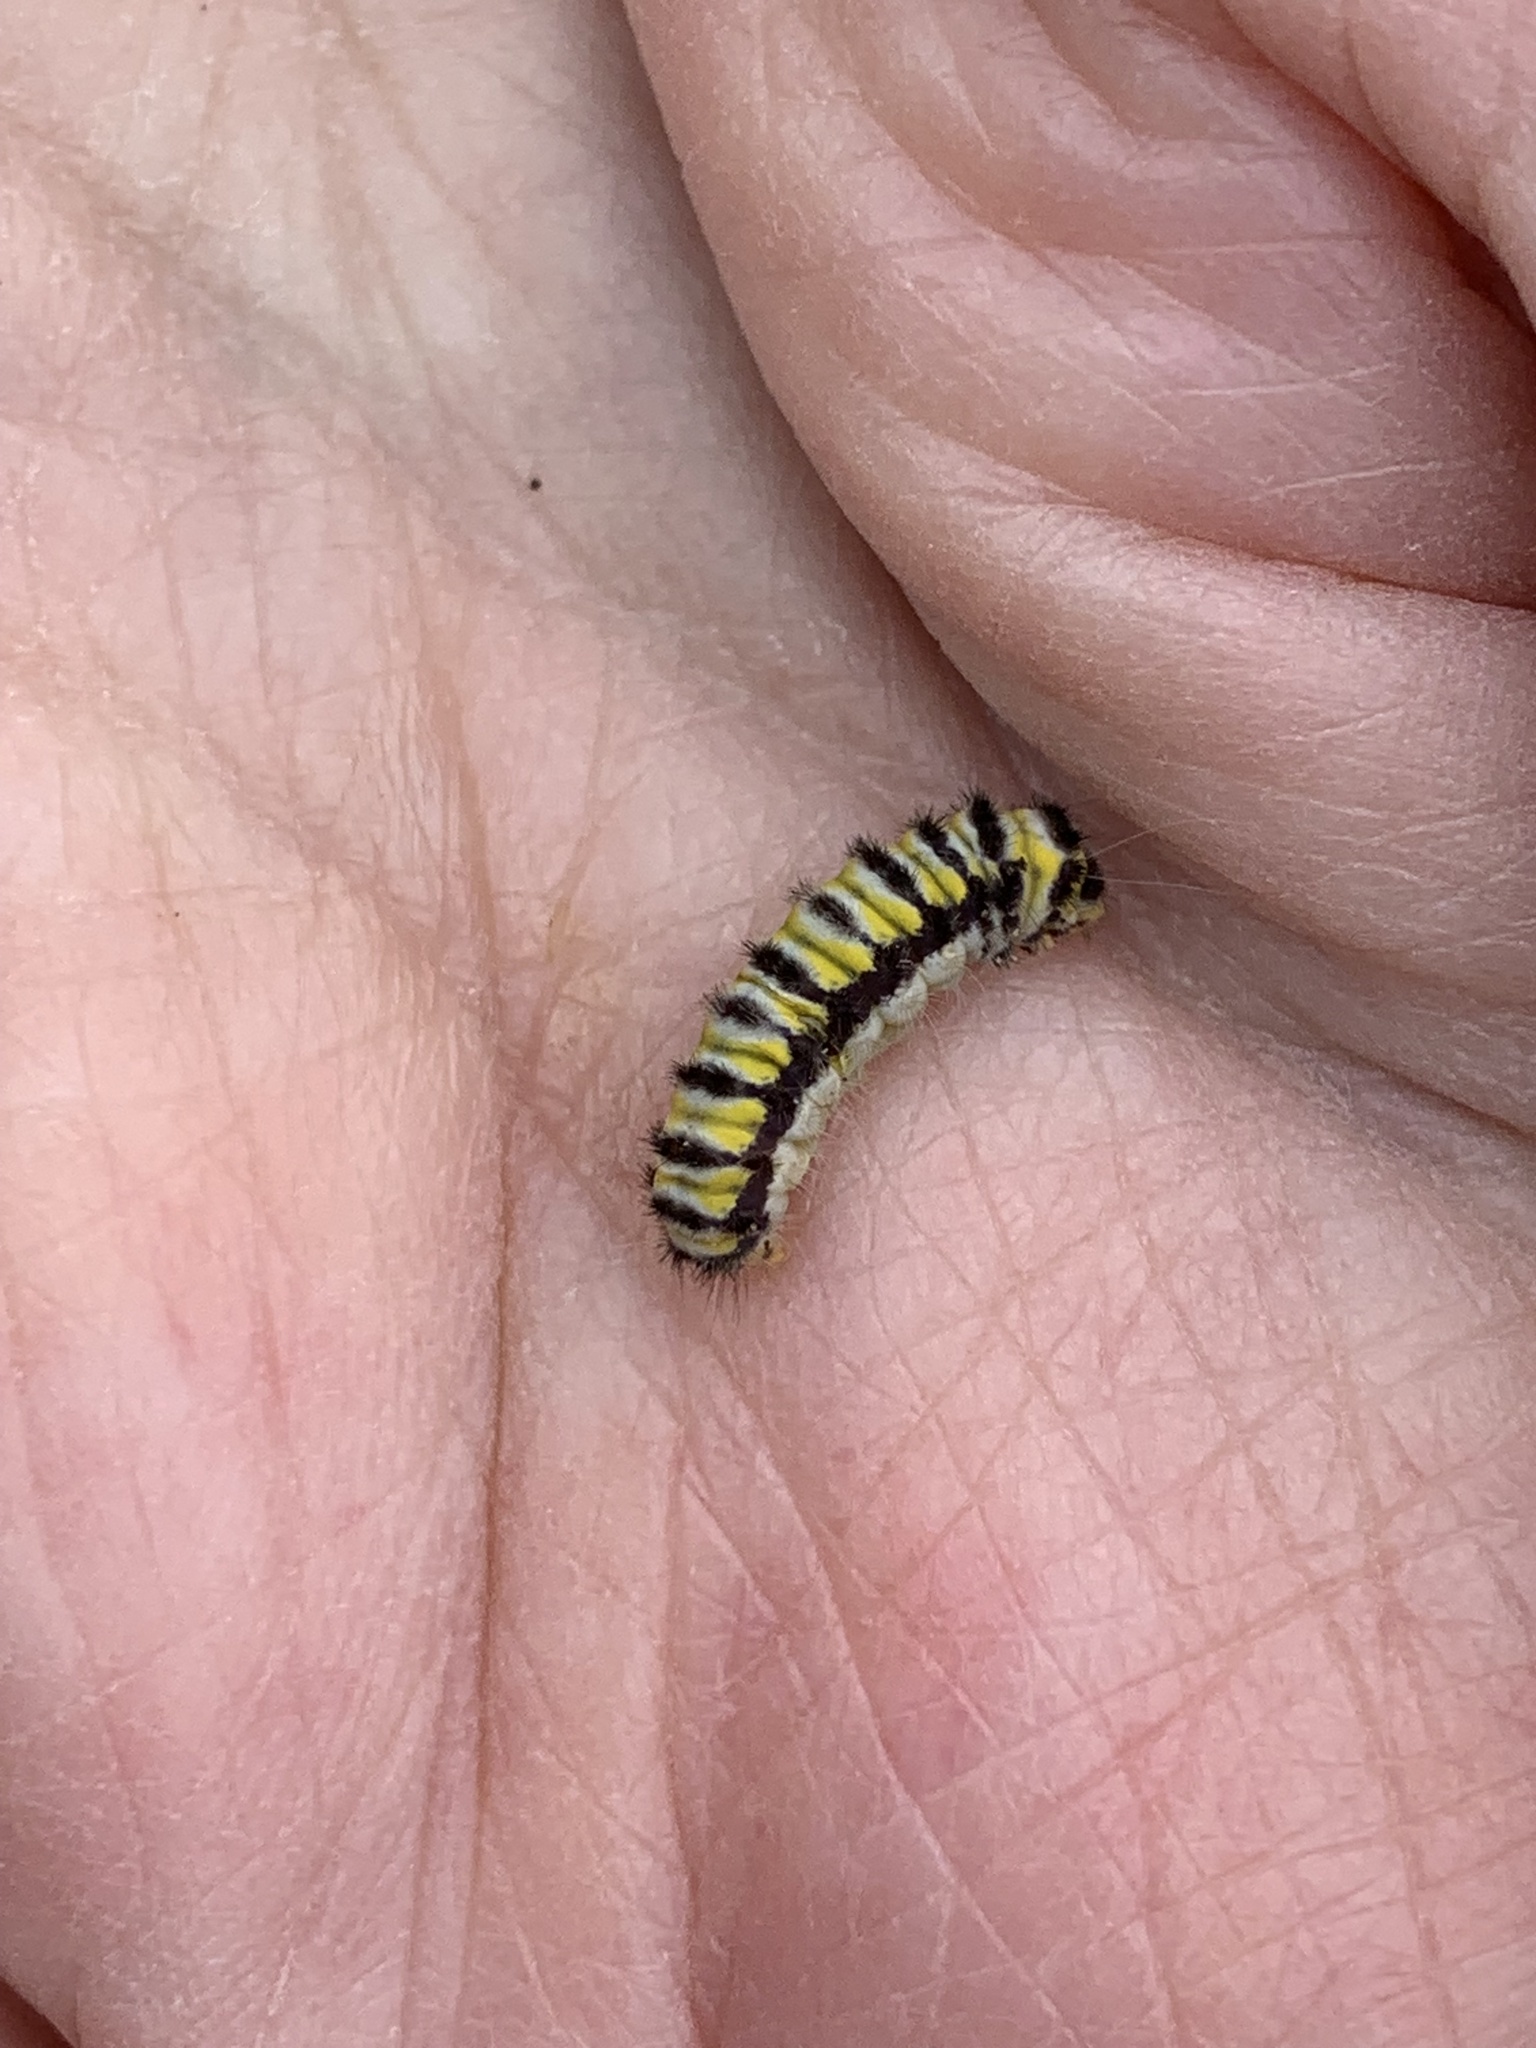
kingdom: Animalia
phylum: Arthropoda
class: Insecta
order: Lepidoptera
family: Zygaenidae
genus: Harrisina
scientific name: Harrisina coracina
